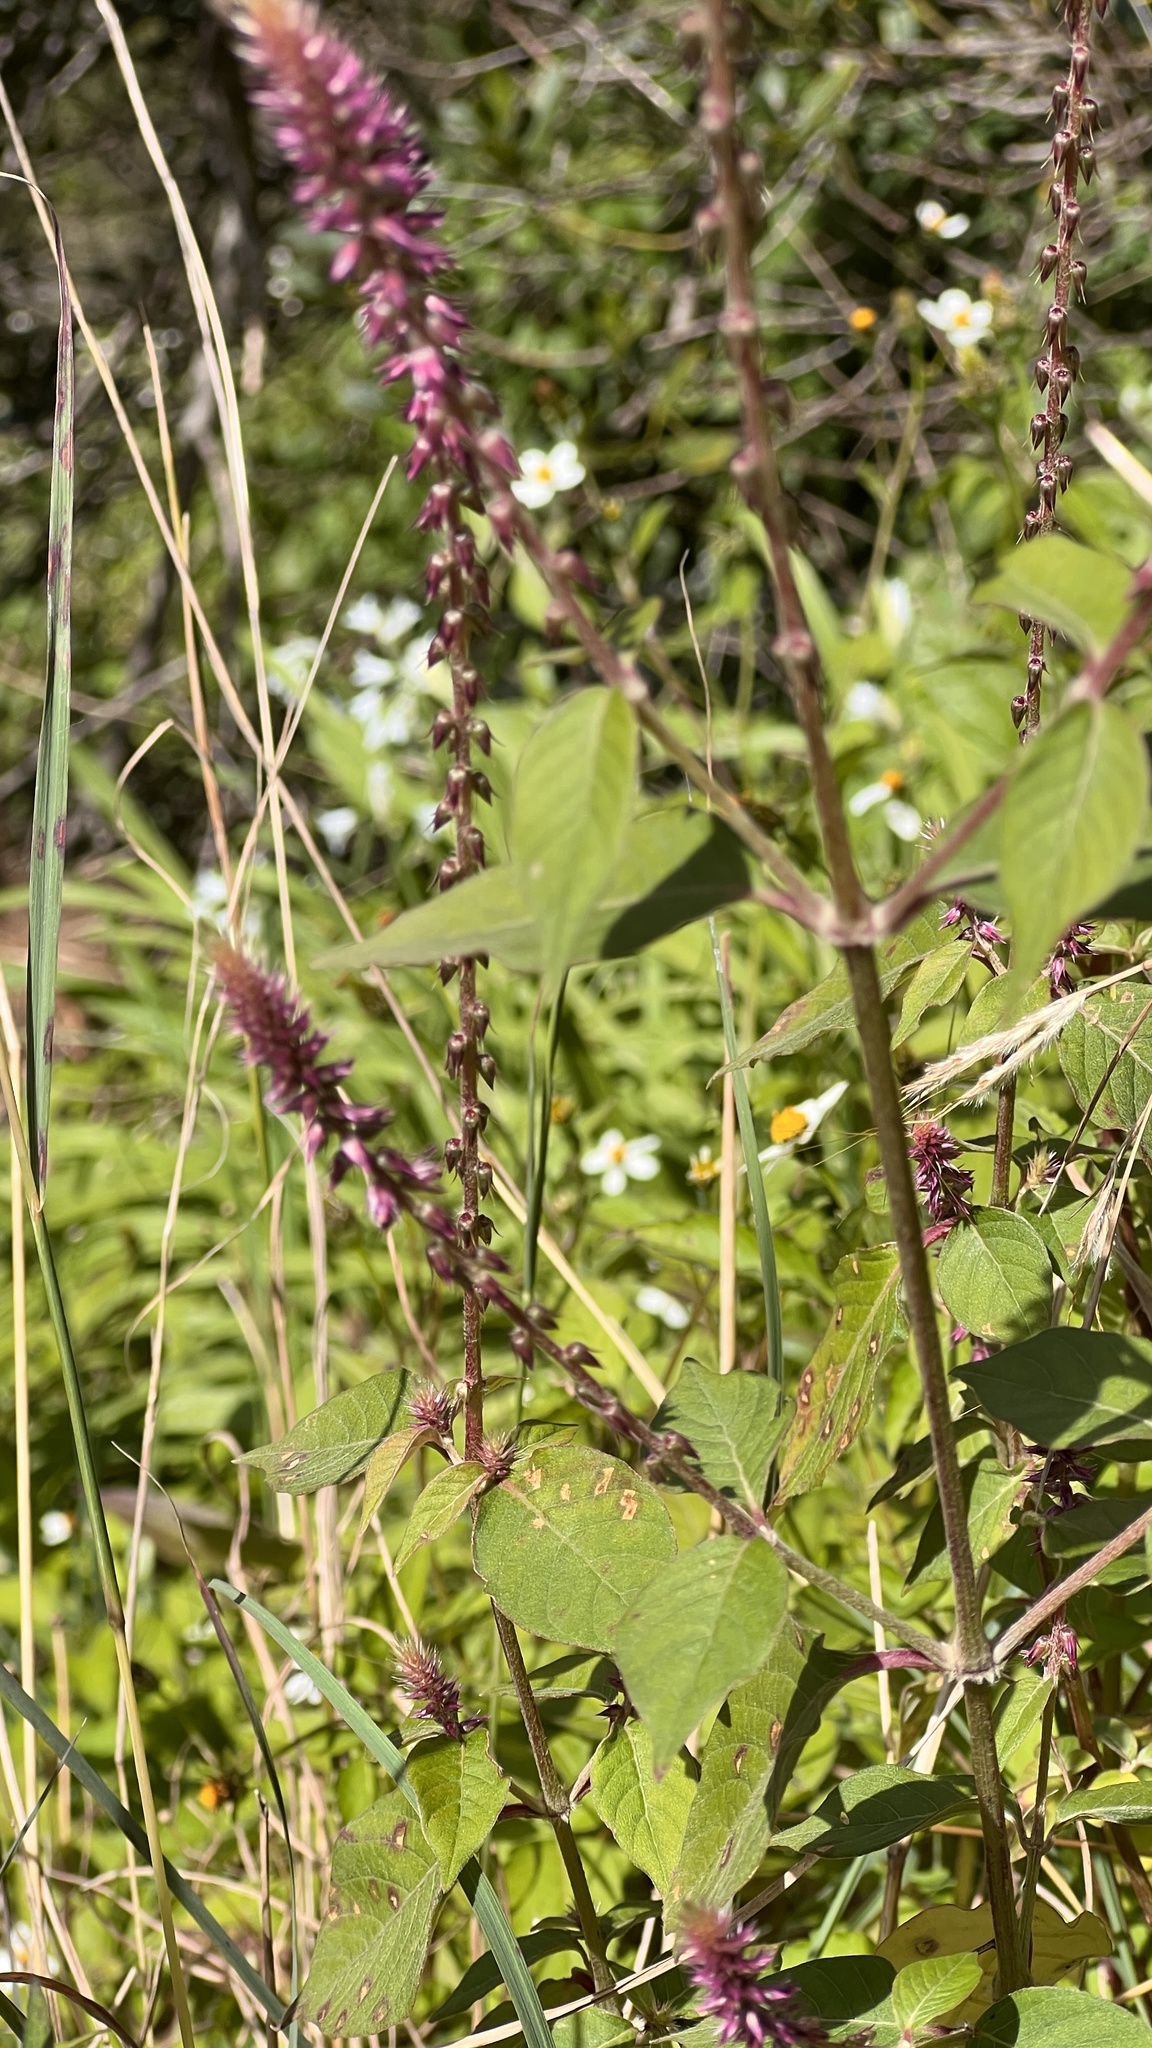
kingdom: Plantae
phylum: Tracheophyta
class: Magnoliopsida
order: Caryophyllales
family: Amaranthaceae
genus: Achyranthes
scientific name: Achyranthes aspera
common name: Devil's horsewhip
